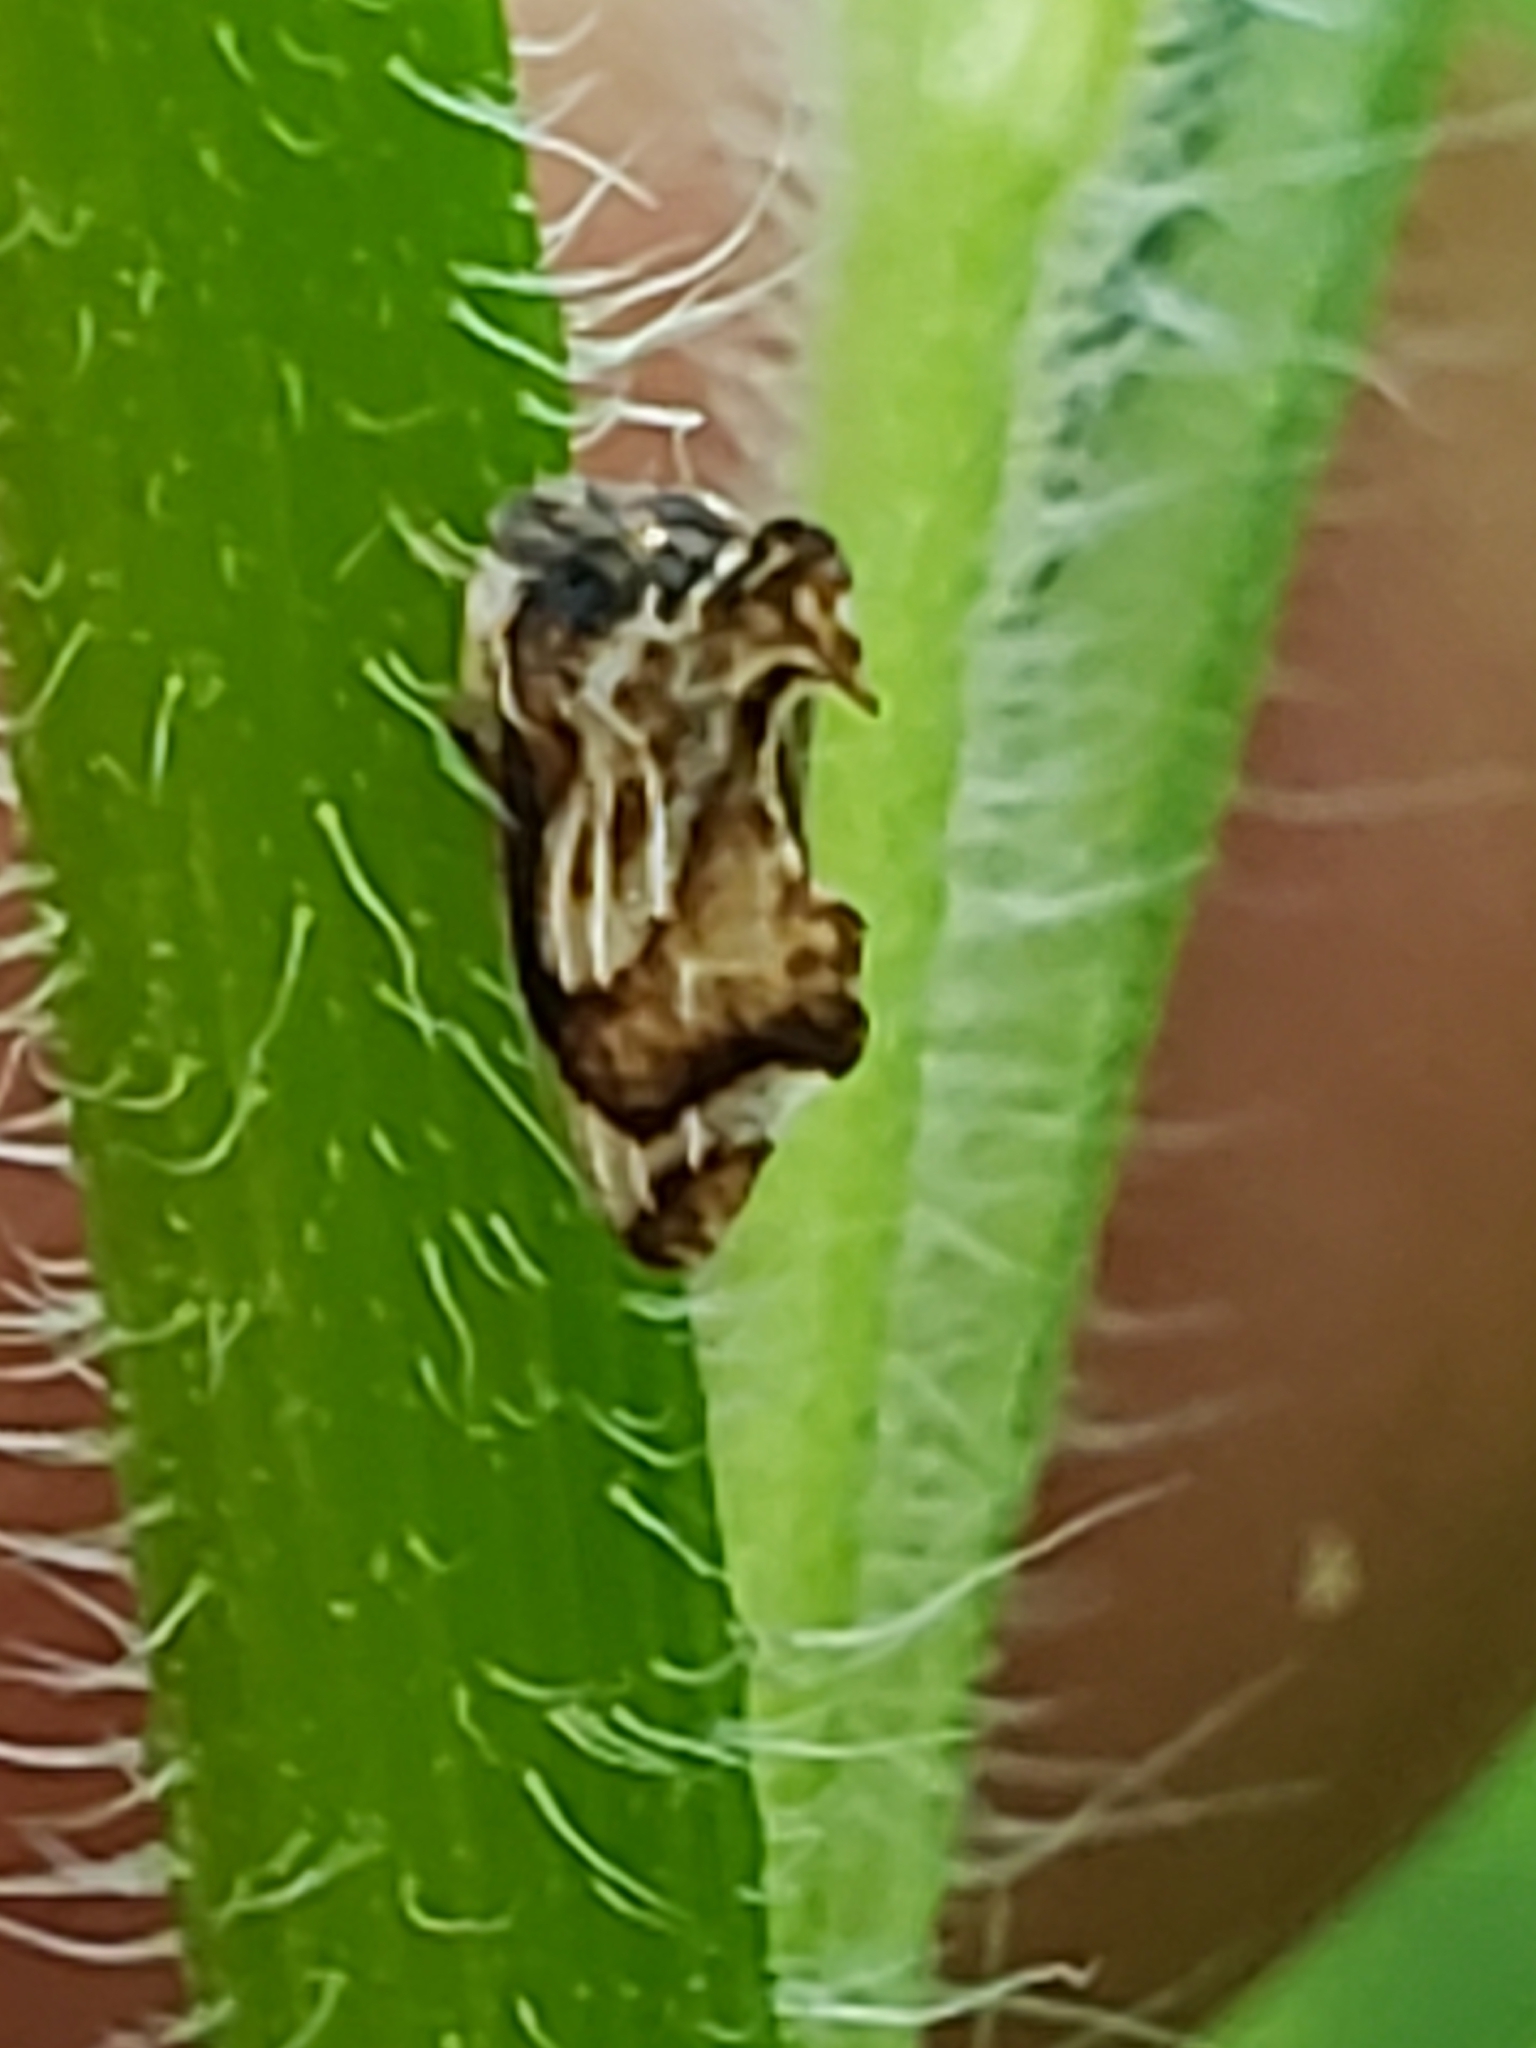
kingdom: Animalia
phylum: Arthropoda
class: Insecta
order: Hemiptera
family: Membracidae
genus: Entylia
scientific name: Entylia carinata
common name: Keeled treehopper
